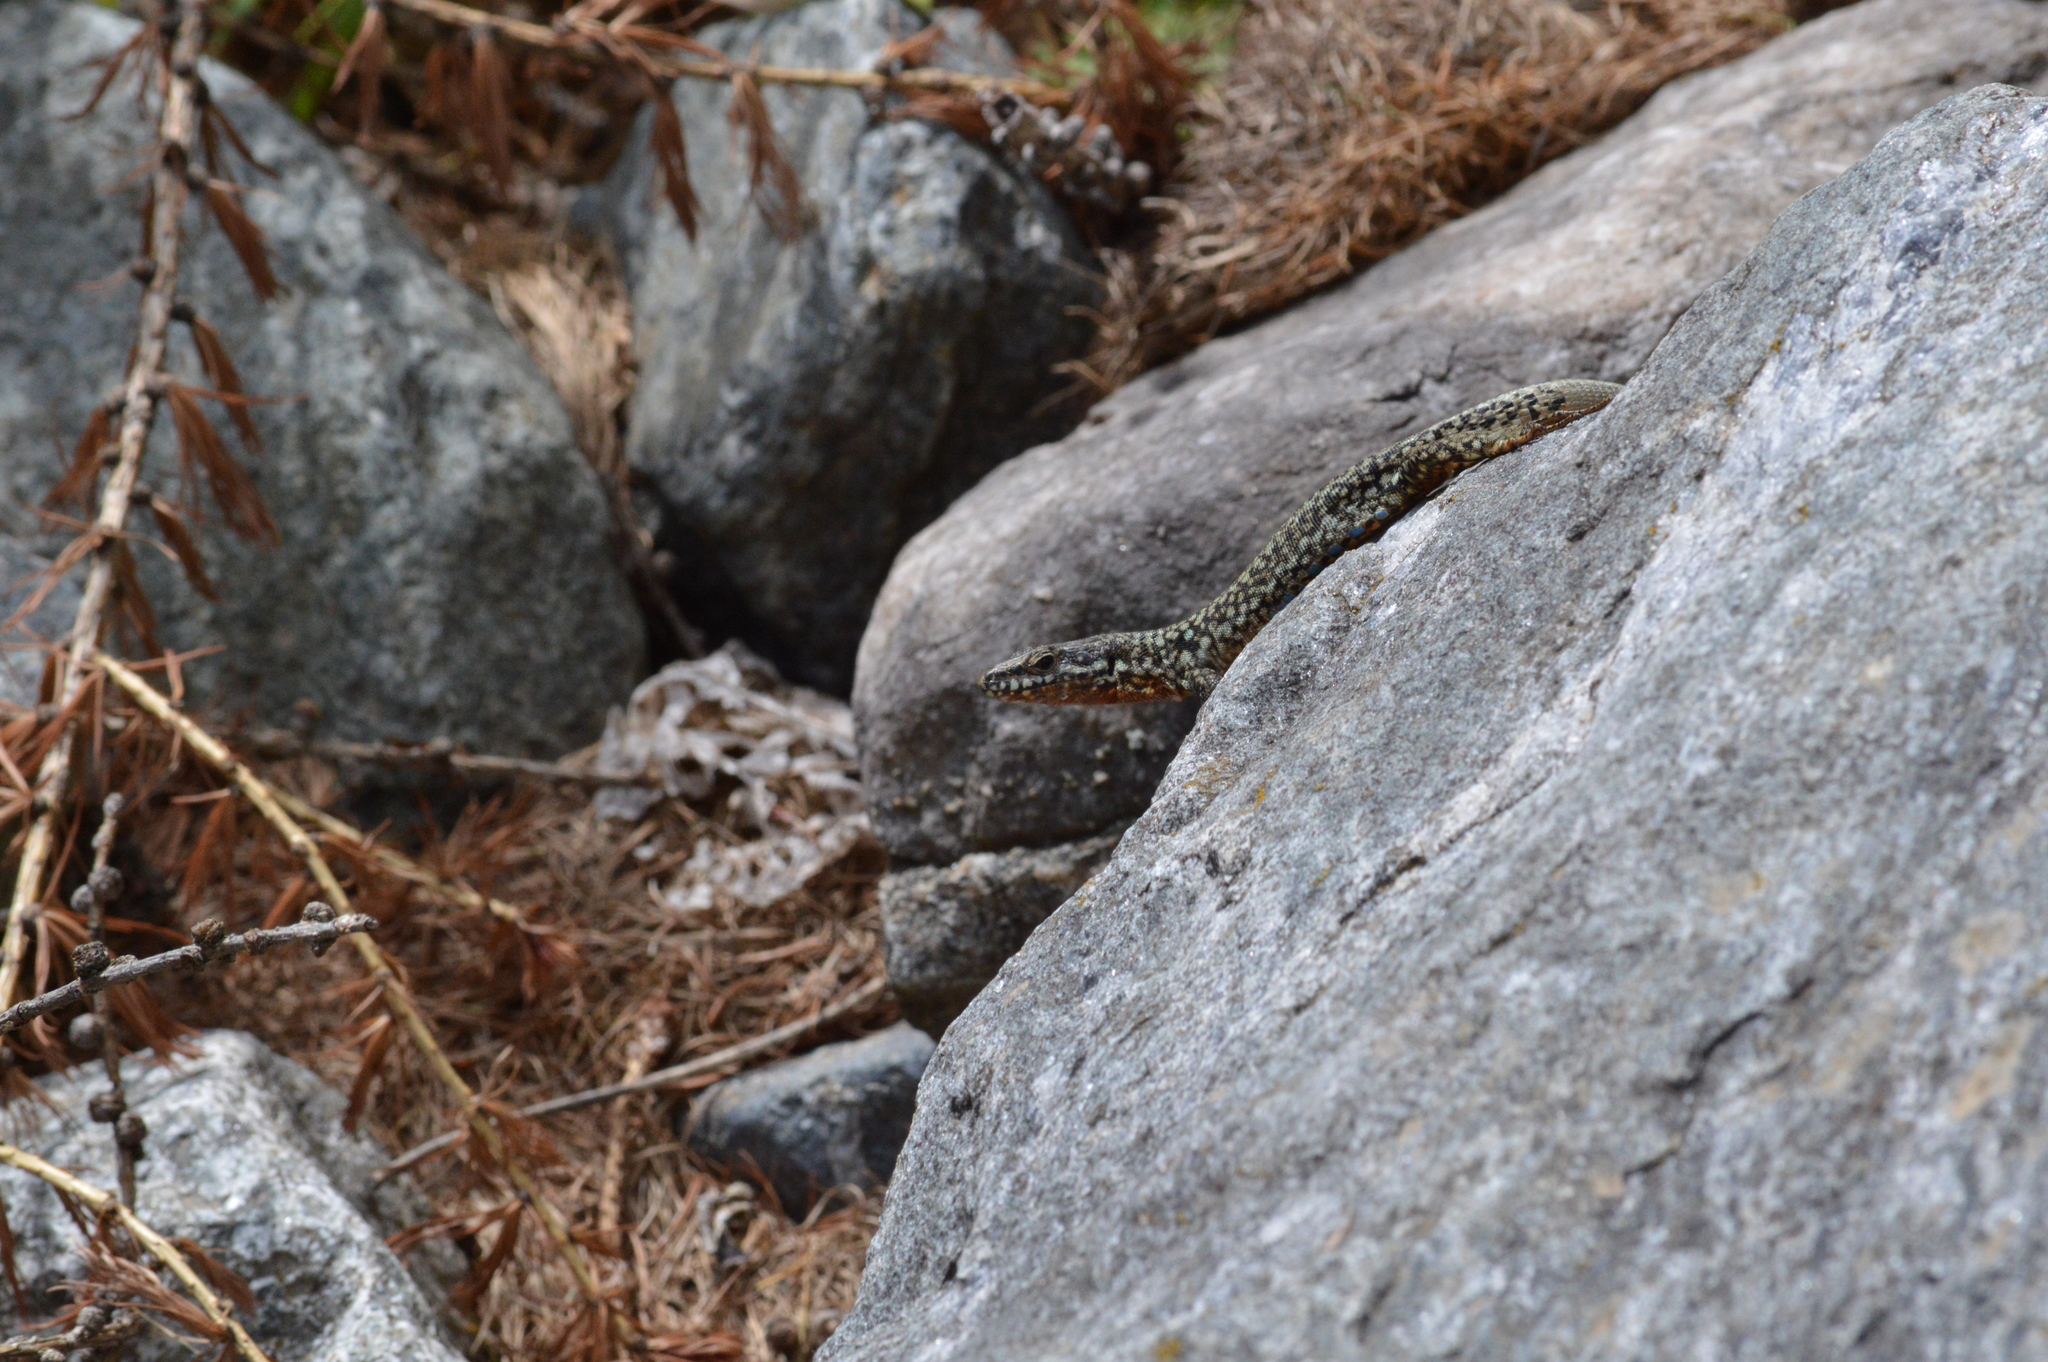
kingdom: Animalia
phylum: Chordata
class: Squamata
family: Lacertidae
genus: Podarcis
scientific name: Podarcis muralis
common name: Common wall lizard
